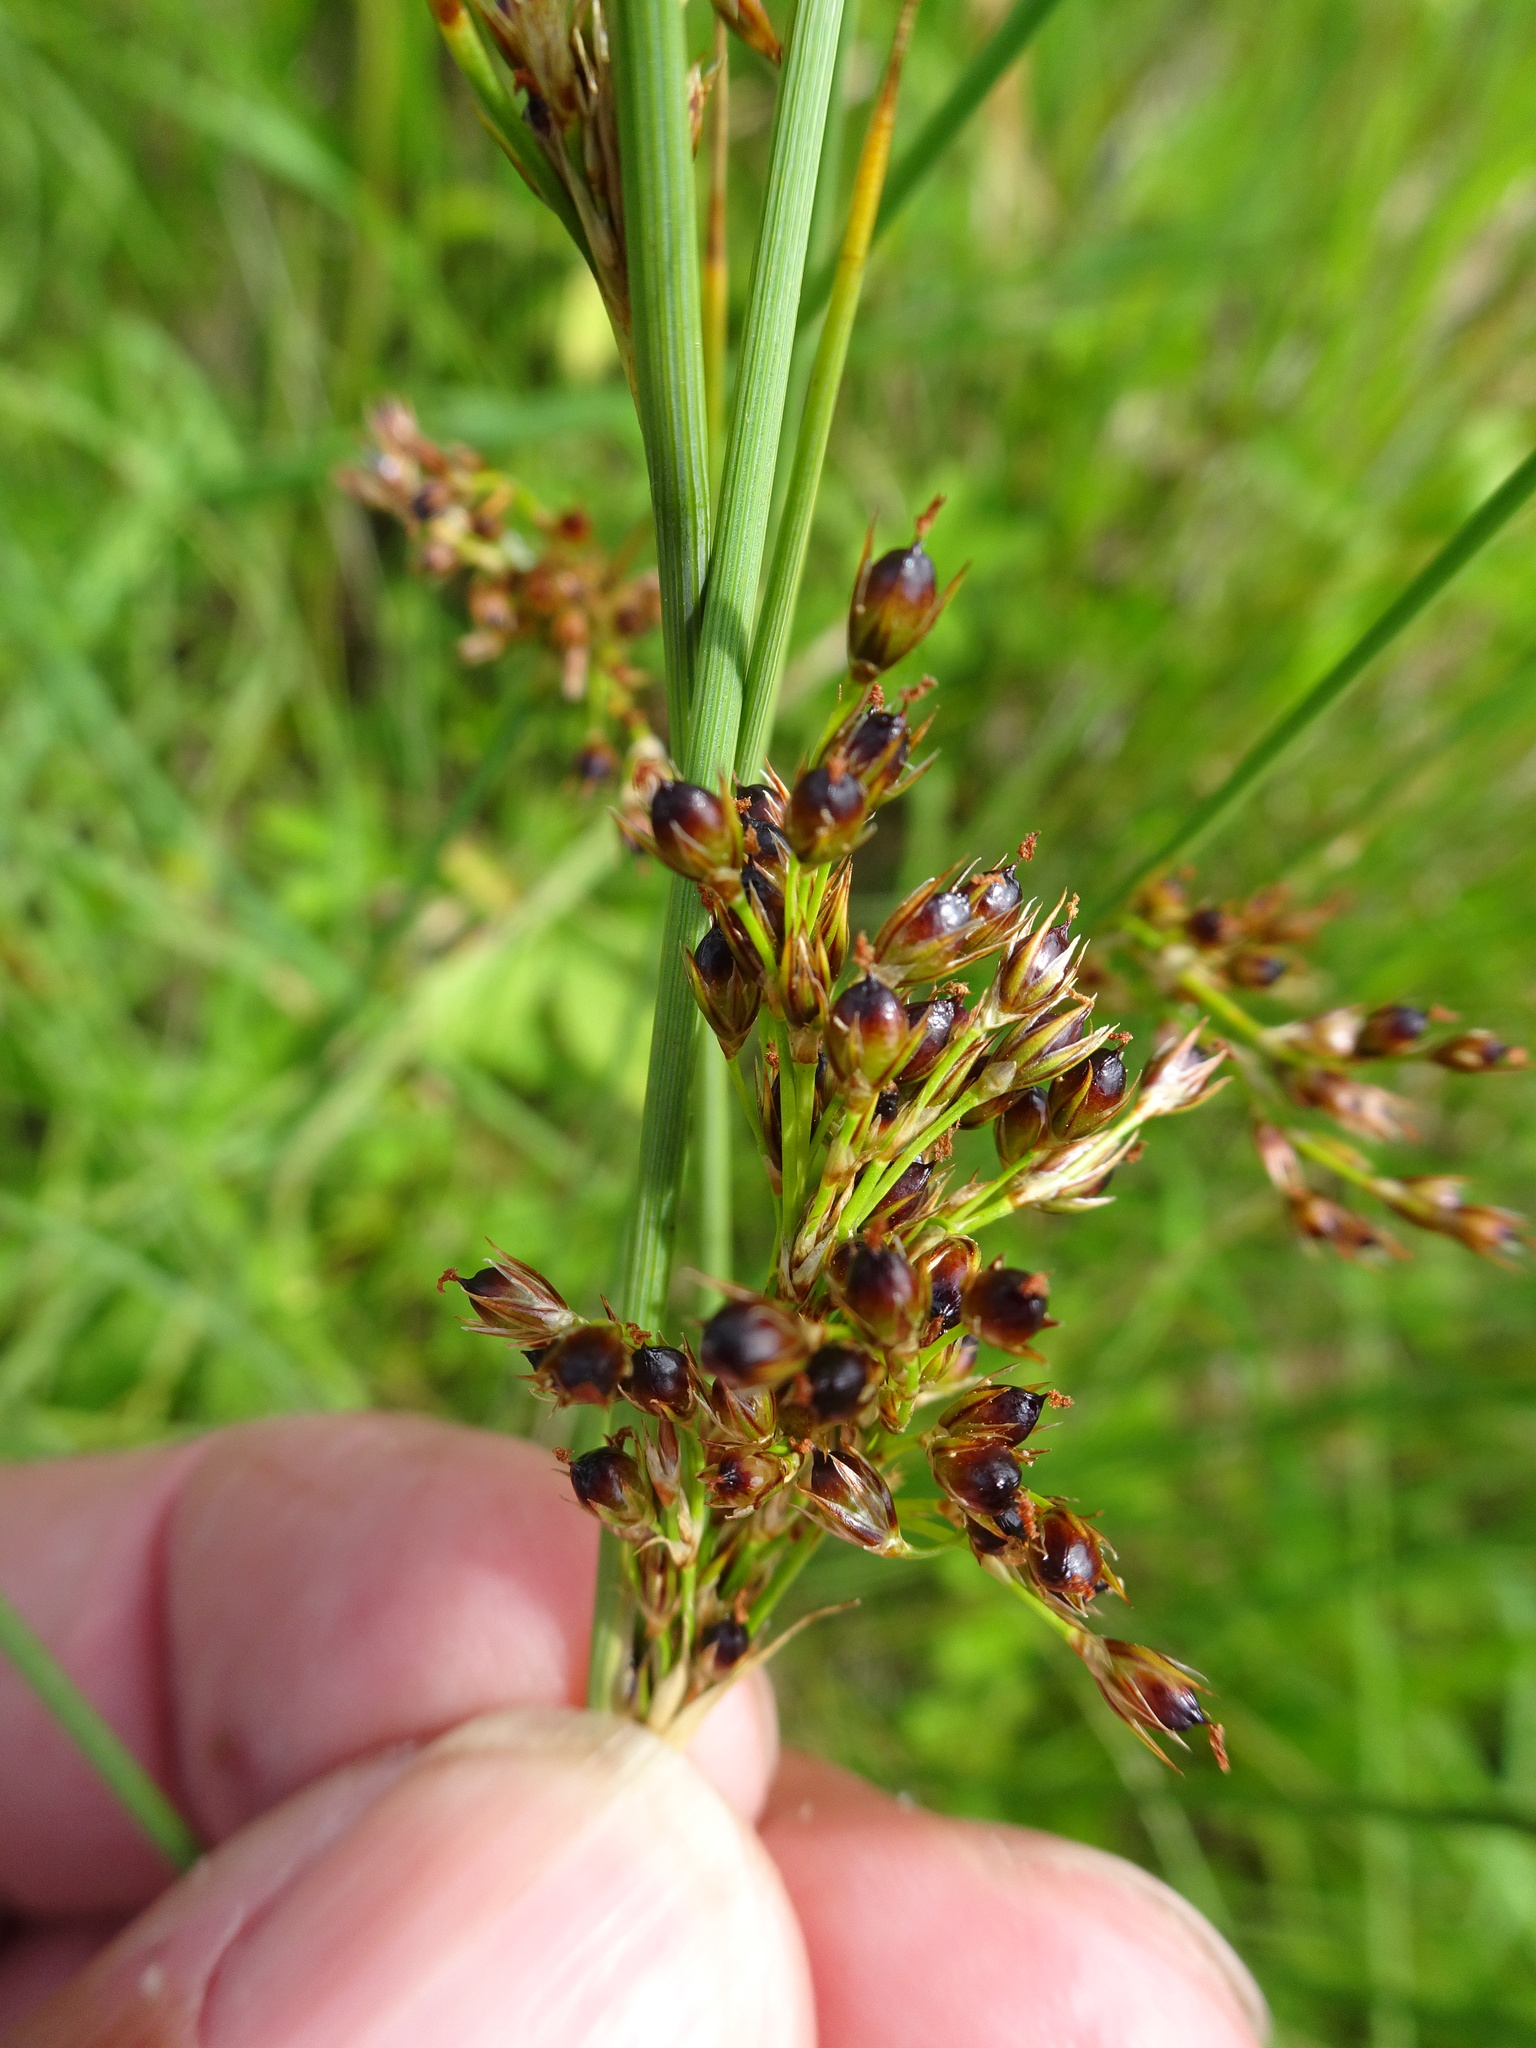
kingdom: Plantae
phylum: Tracheophyta
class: Liliopsida
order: Poales
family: Juncaceae
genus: Juncus
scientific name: Juncus inflexus
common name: Hard rush
